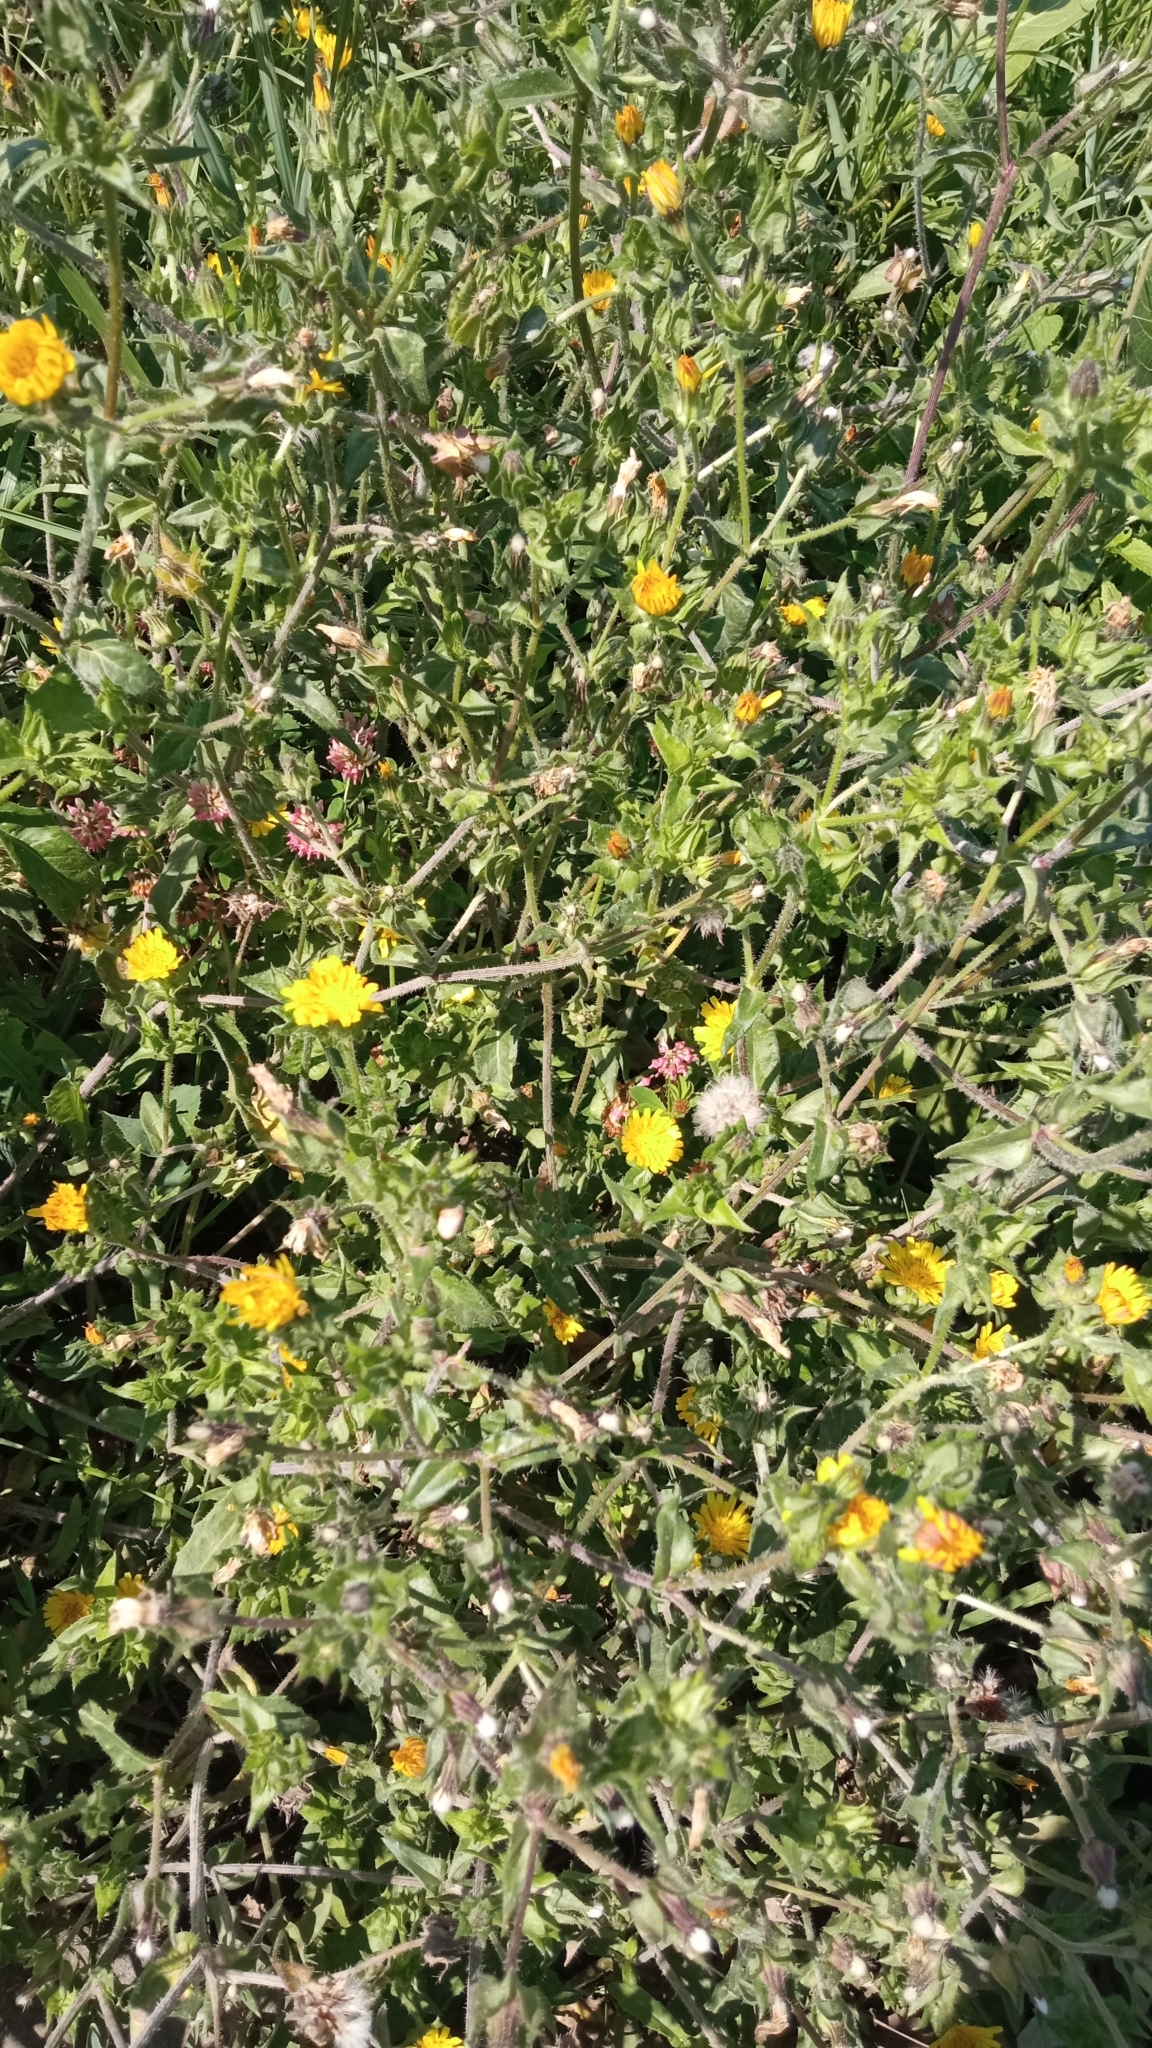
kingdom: Plantae
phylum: Tracheophyta
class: Magnoliopsida
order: Asterales
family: Asteraceae
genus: Helminthotheca
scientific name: Helminthotheca echioides
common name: Ox-tongue
